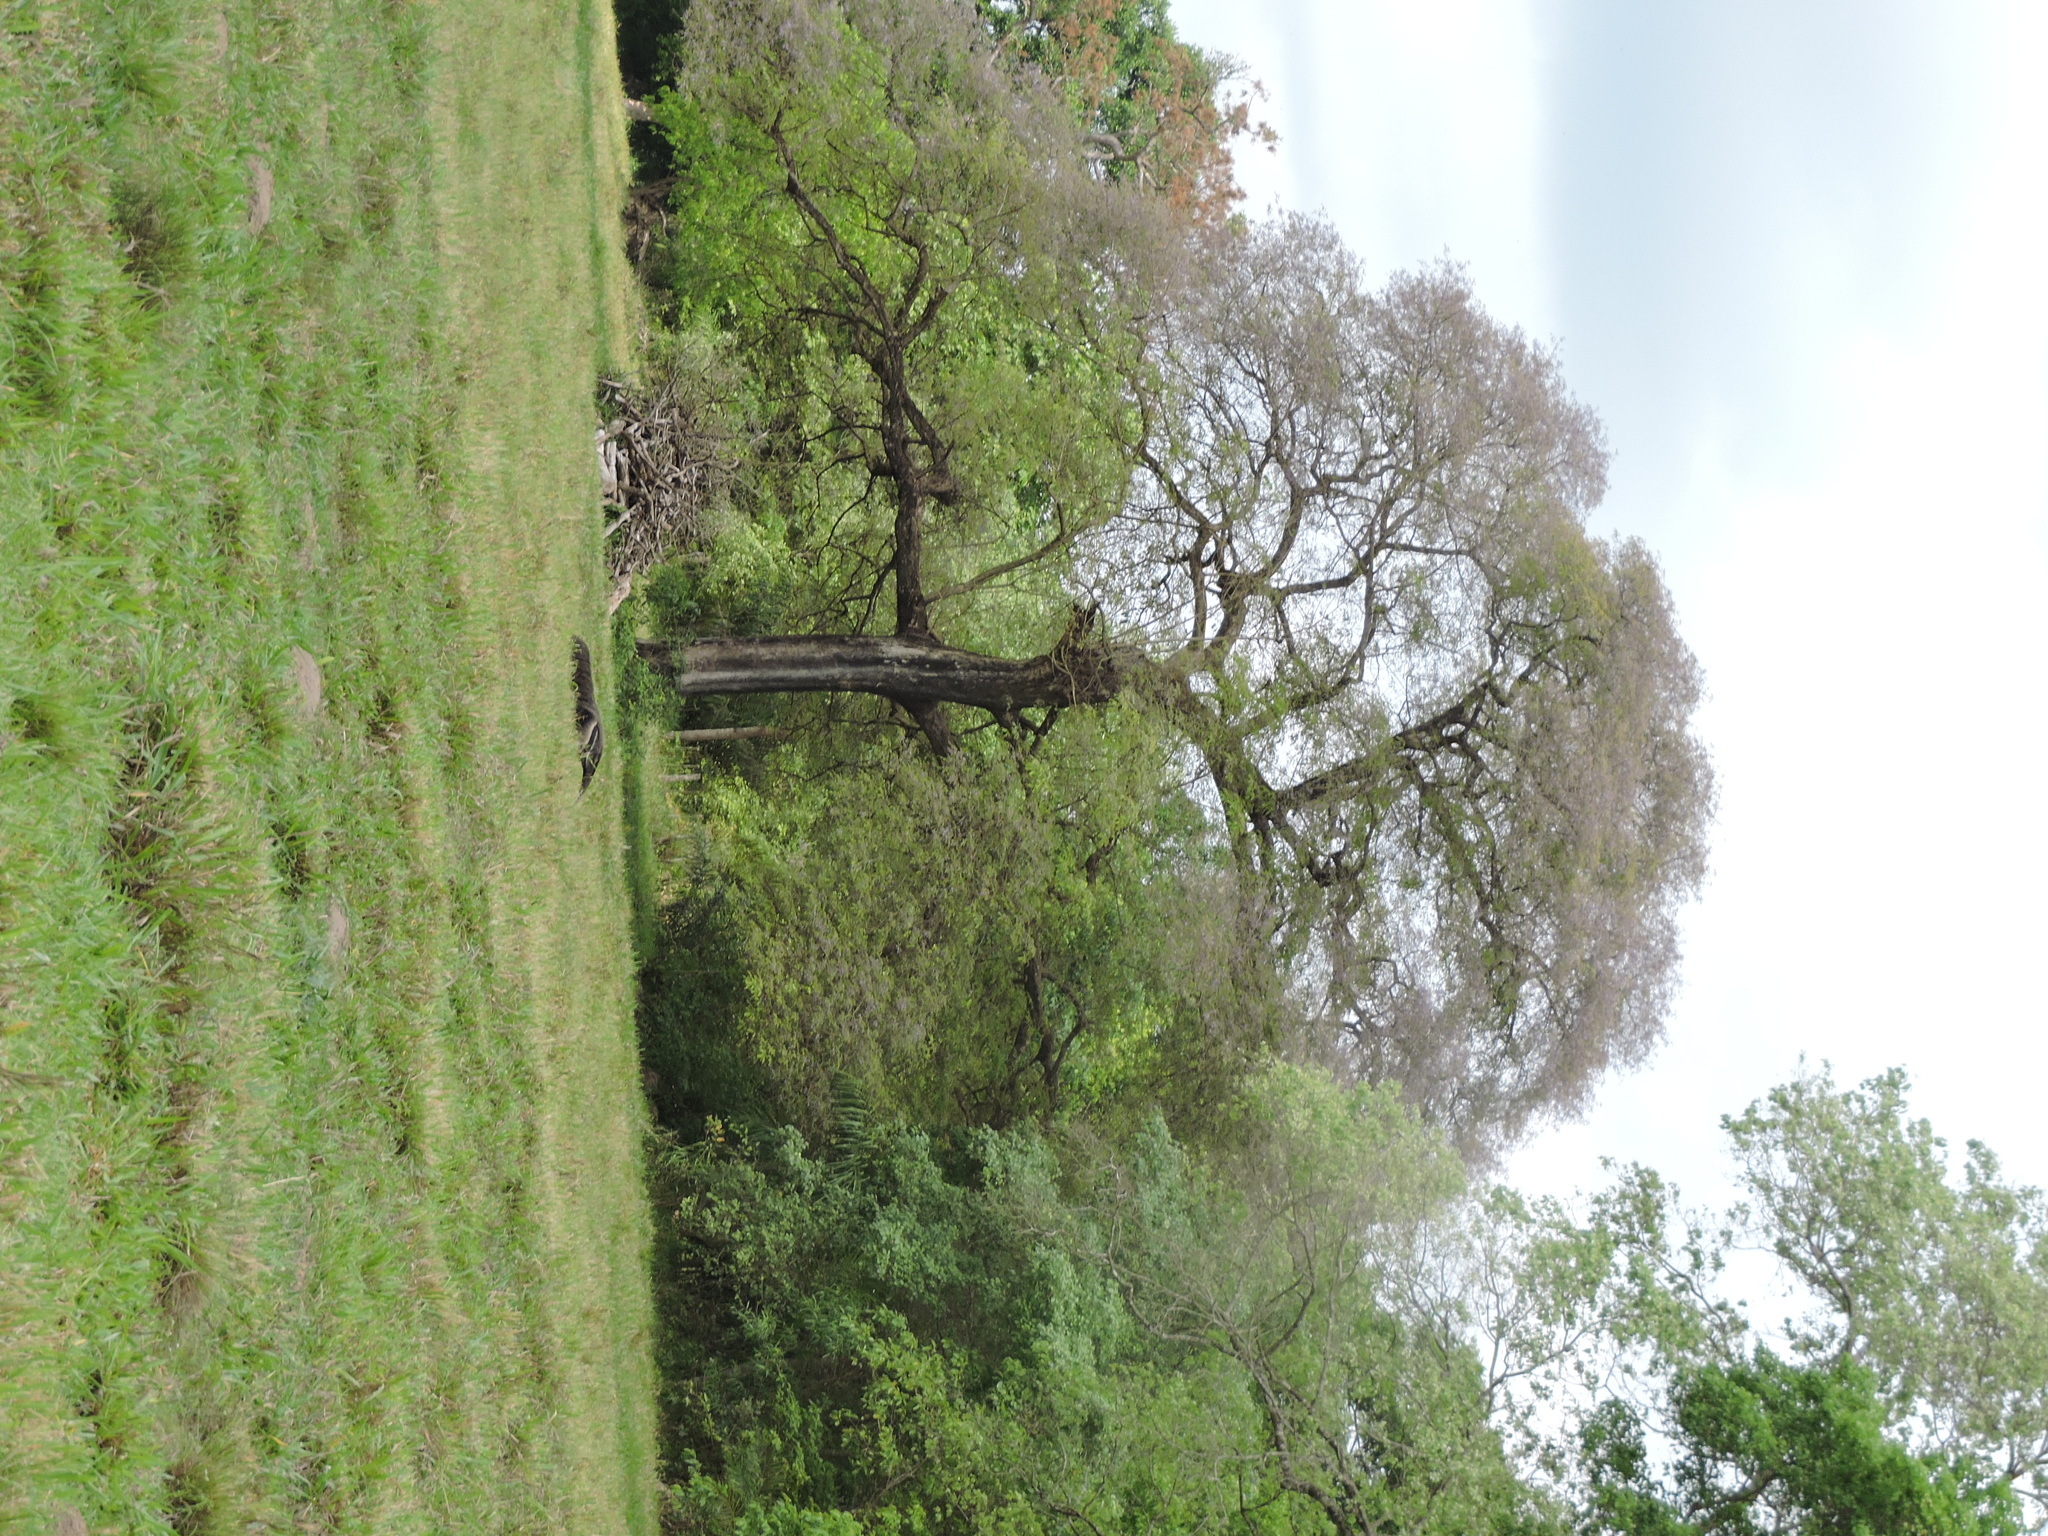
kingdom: Animalia
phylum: Chordata
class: Mammalia
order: Pilosa
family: Myrmecophagidae
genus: Myrmecophaga
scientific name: Myrmecophaga tridactyla
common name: Giant anteater
